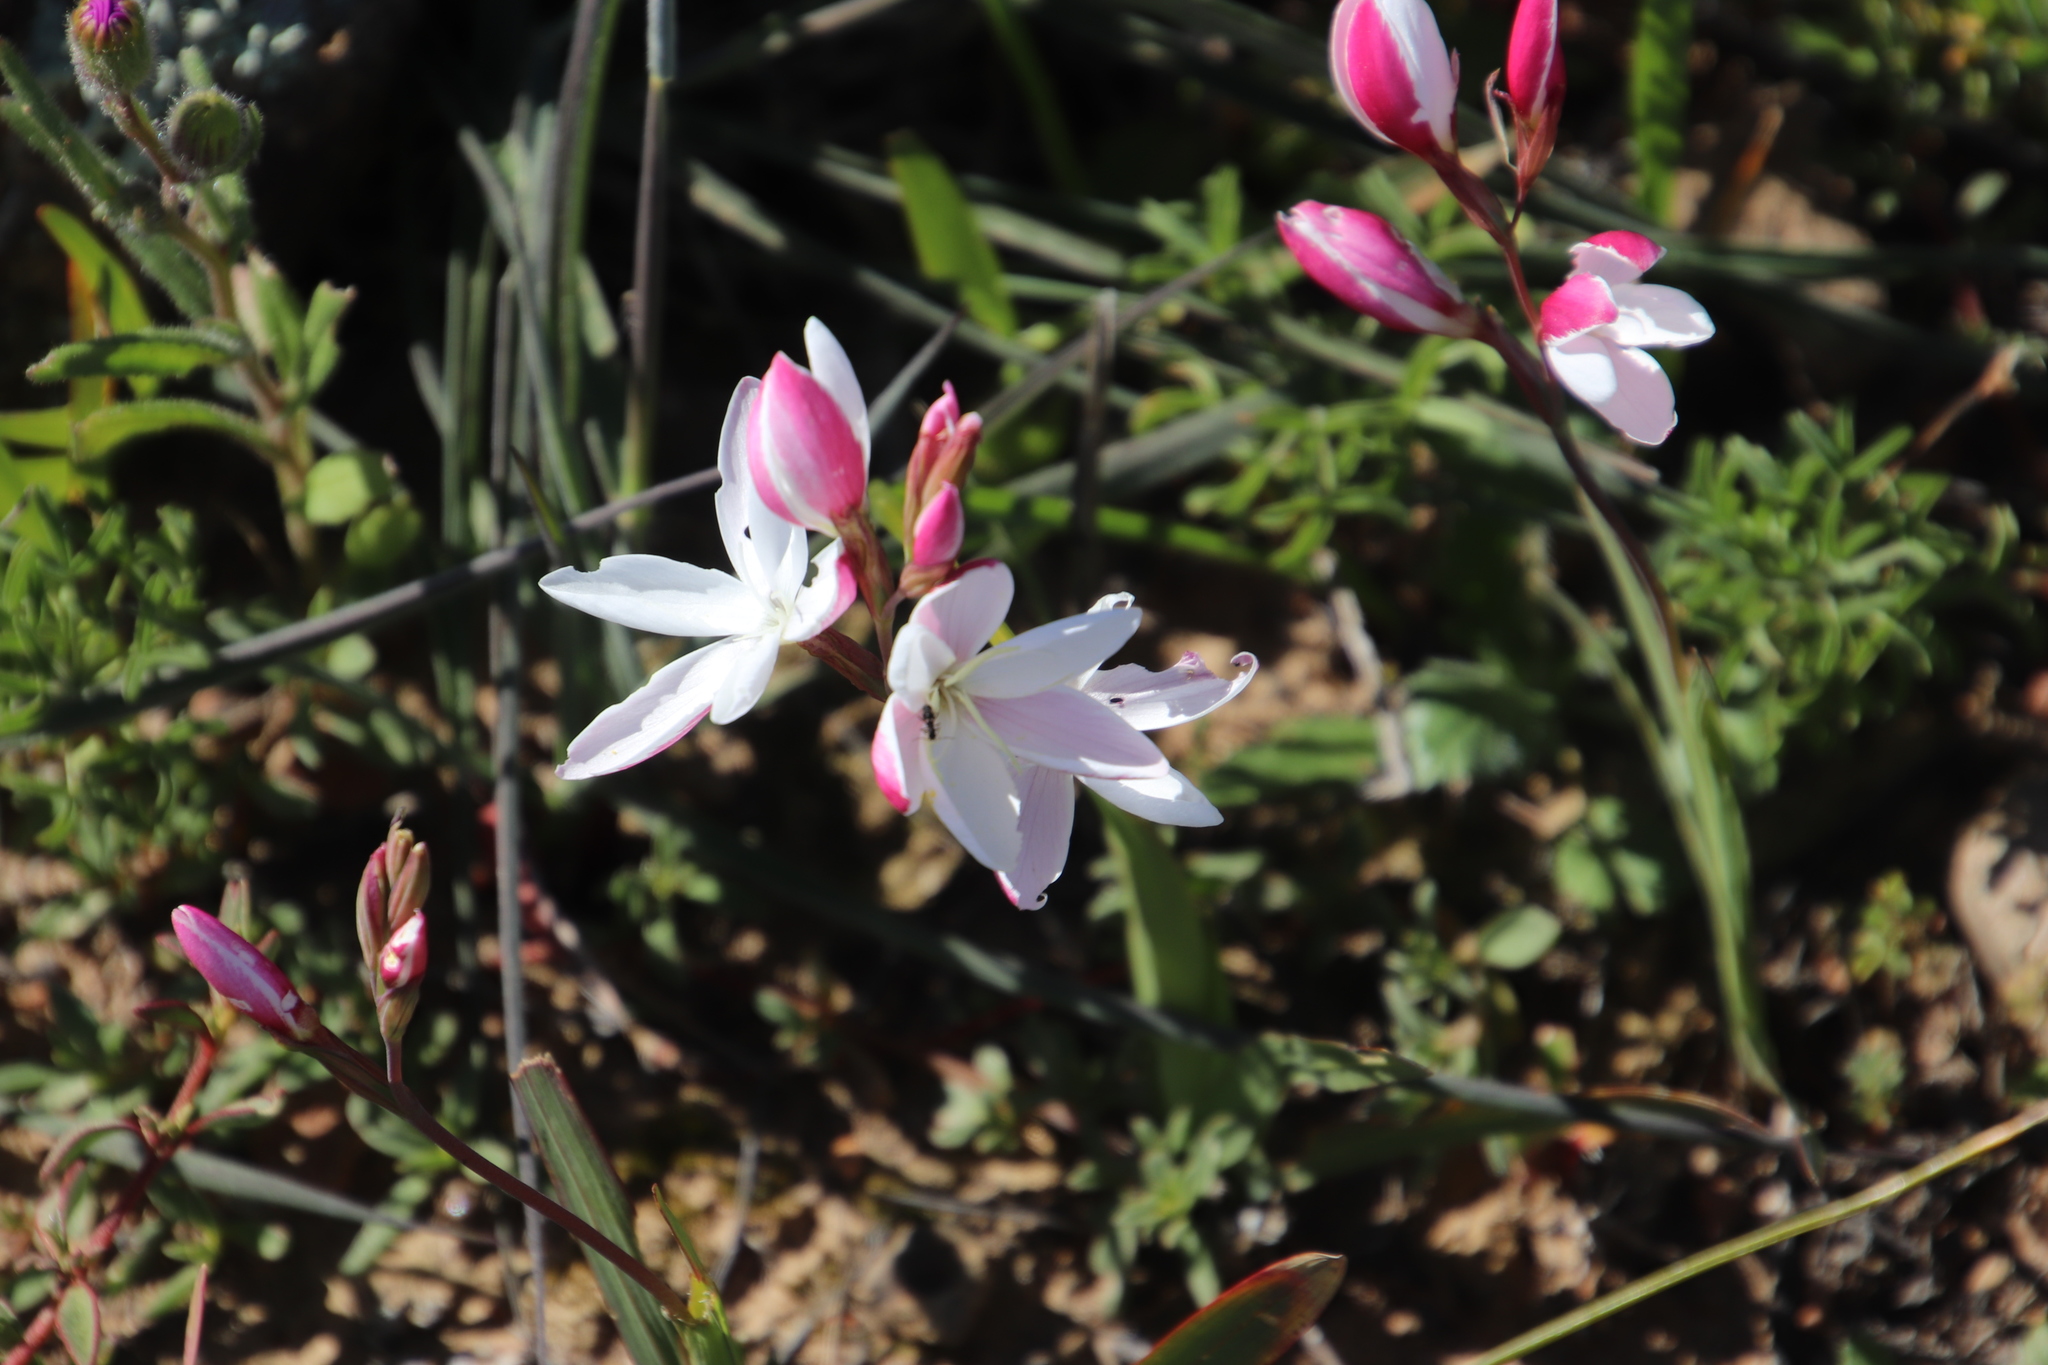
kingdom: Plantae
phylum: Tracheophyta
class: Liliopsida
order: Asparagales
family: Iridaceae
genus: Hesperantha
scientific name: Hesperantha cucullata
